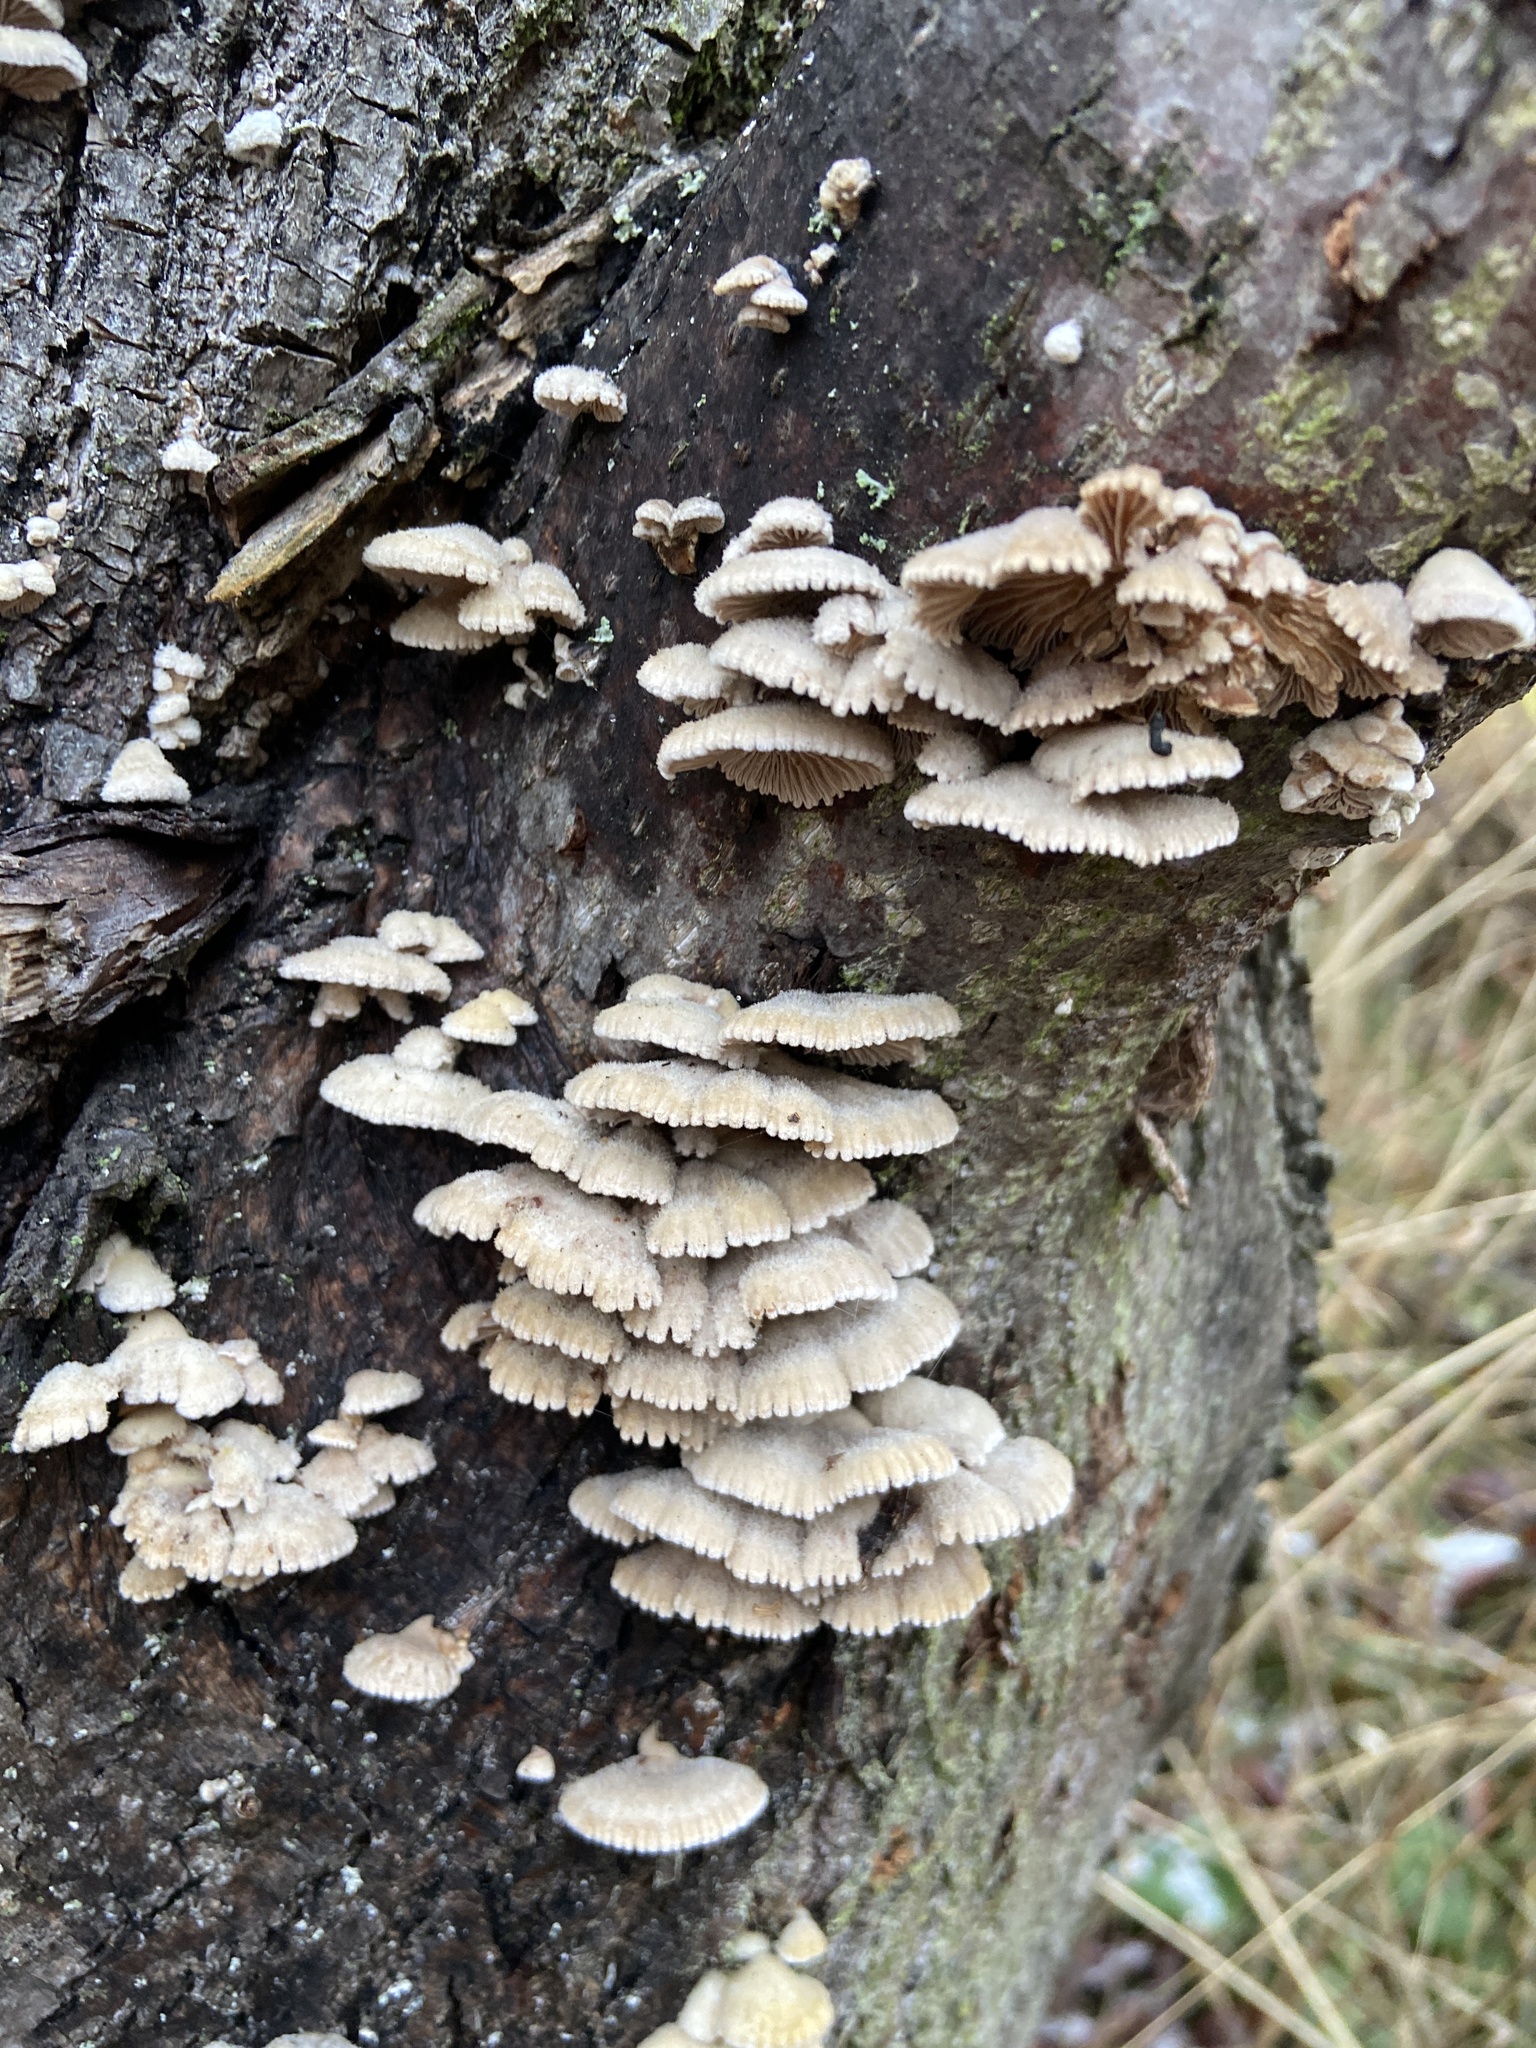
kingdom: Fungi
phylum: Basidiomycota
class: Agaricomycetes
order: Agaricales
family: Schizophyllaceae
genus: Schizophyllum
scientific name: Schizophyllum commune
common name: Common porecrust
